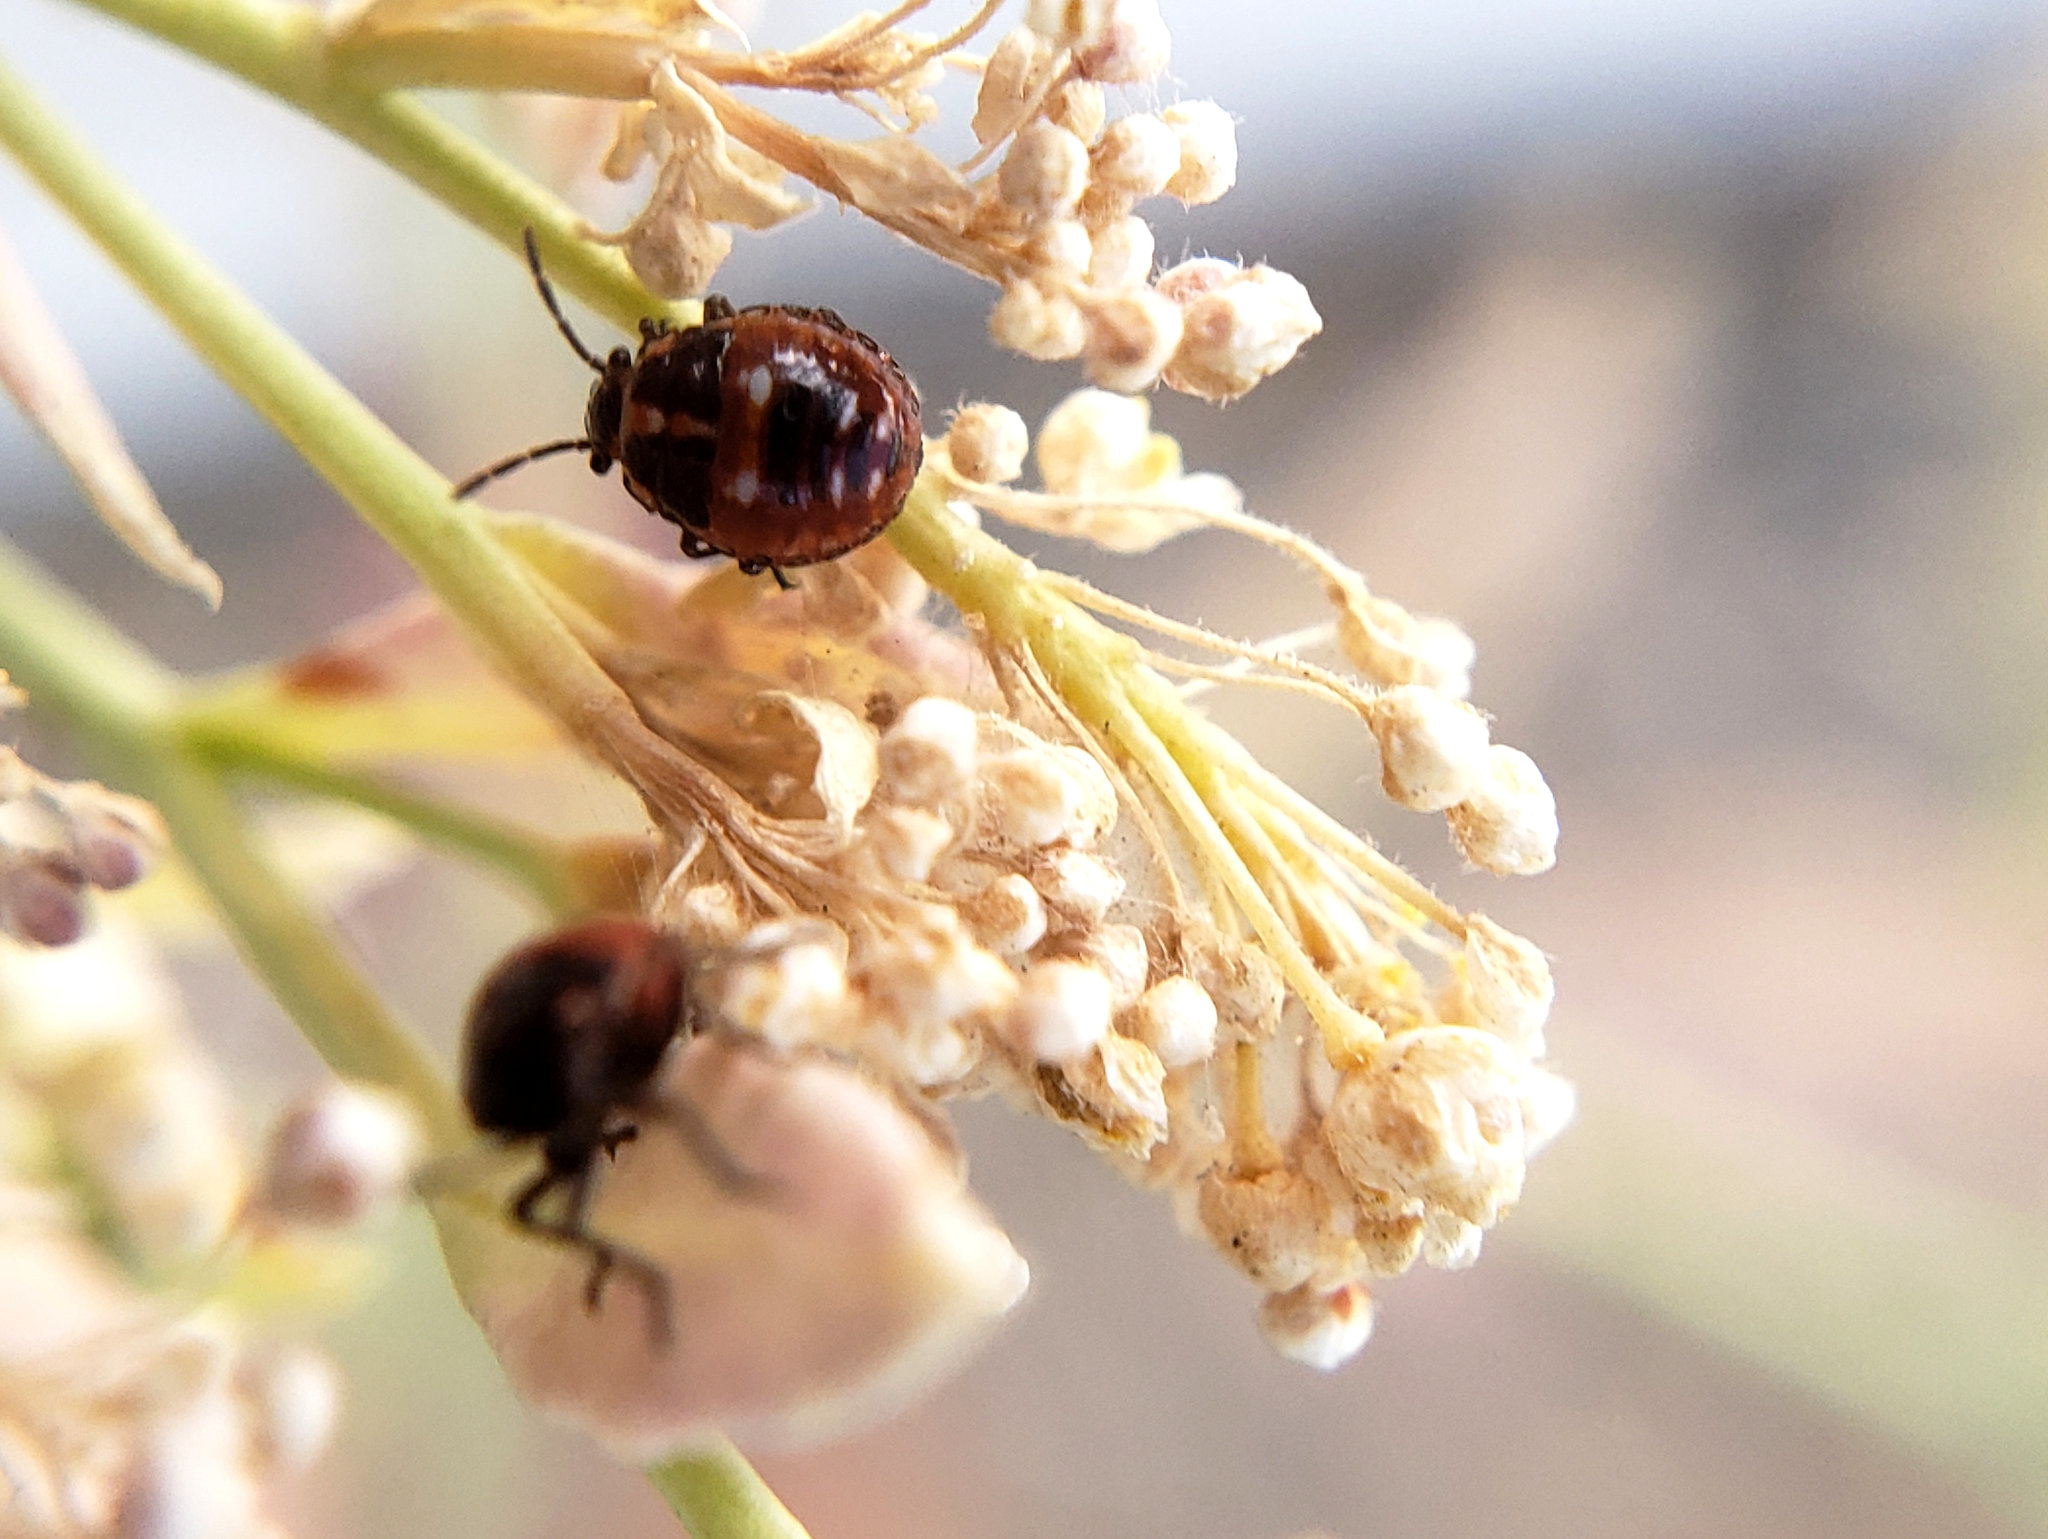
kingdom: Animalia
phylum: Arthropoda
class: Insecta
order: Hemiptera
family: Pentatomidae
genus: Bagrada
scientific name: Bagrada hilaris
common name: Bagrada bug
